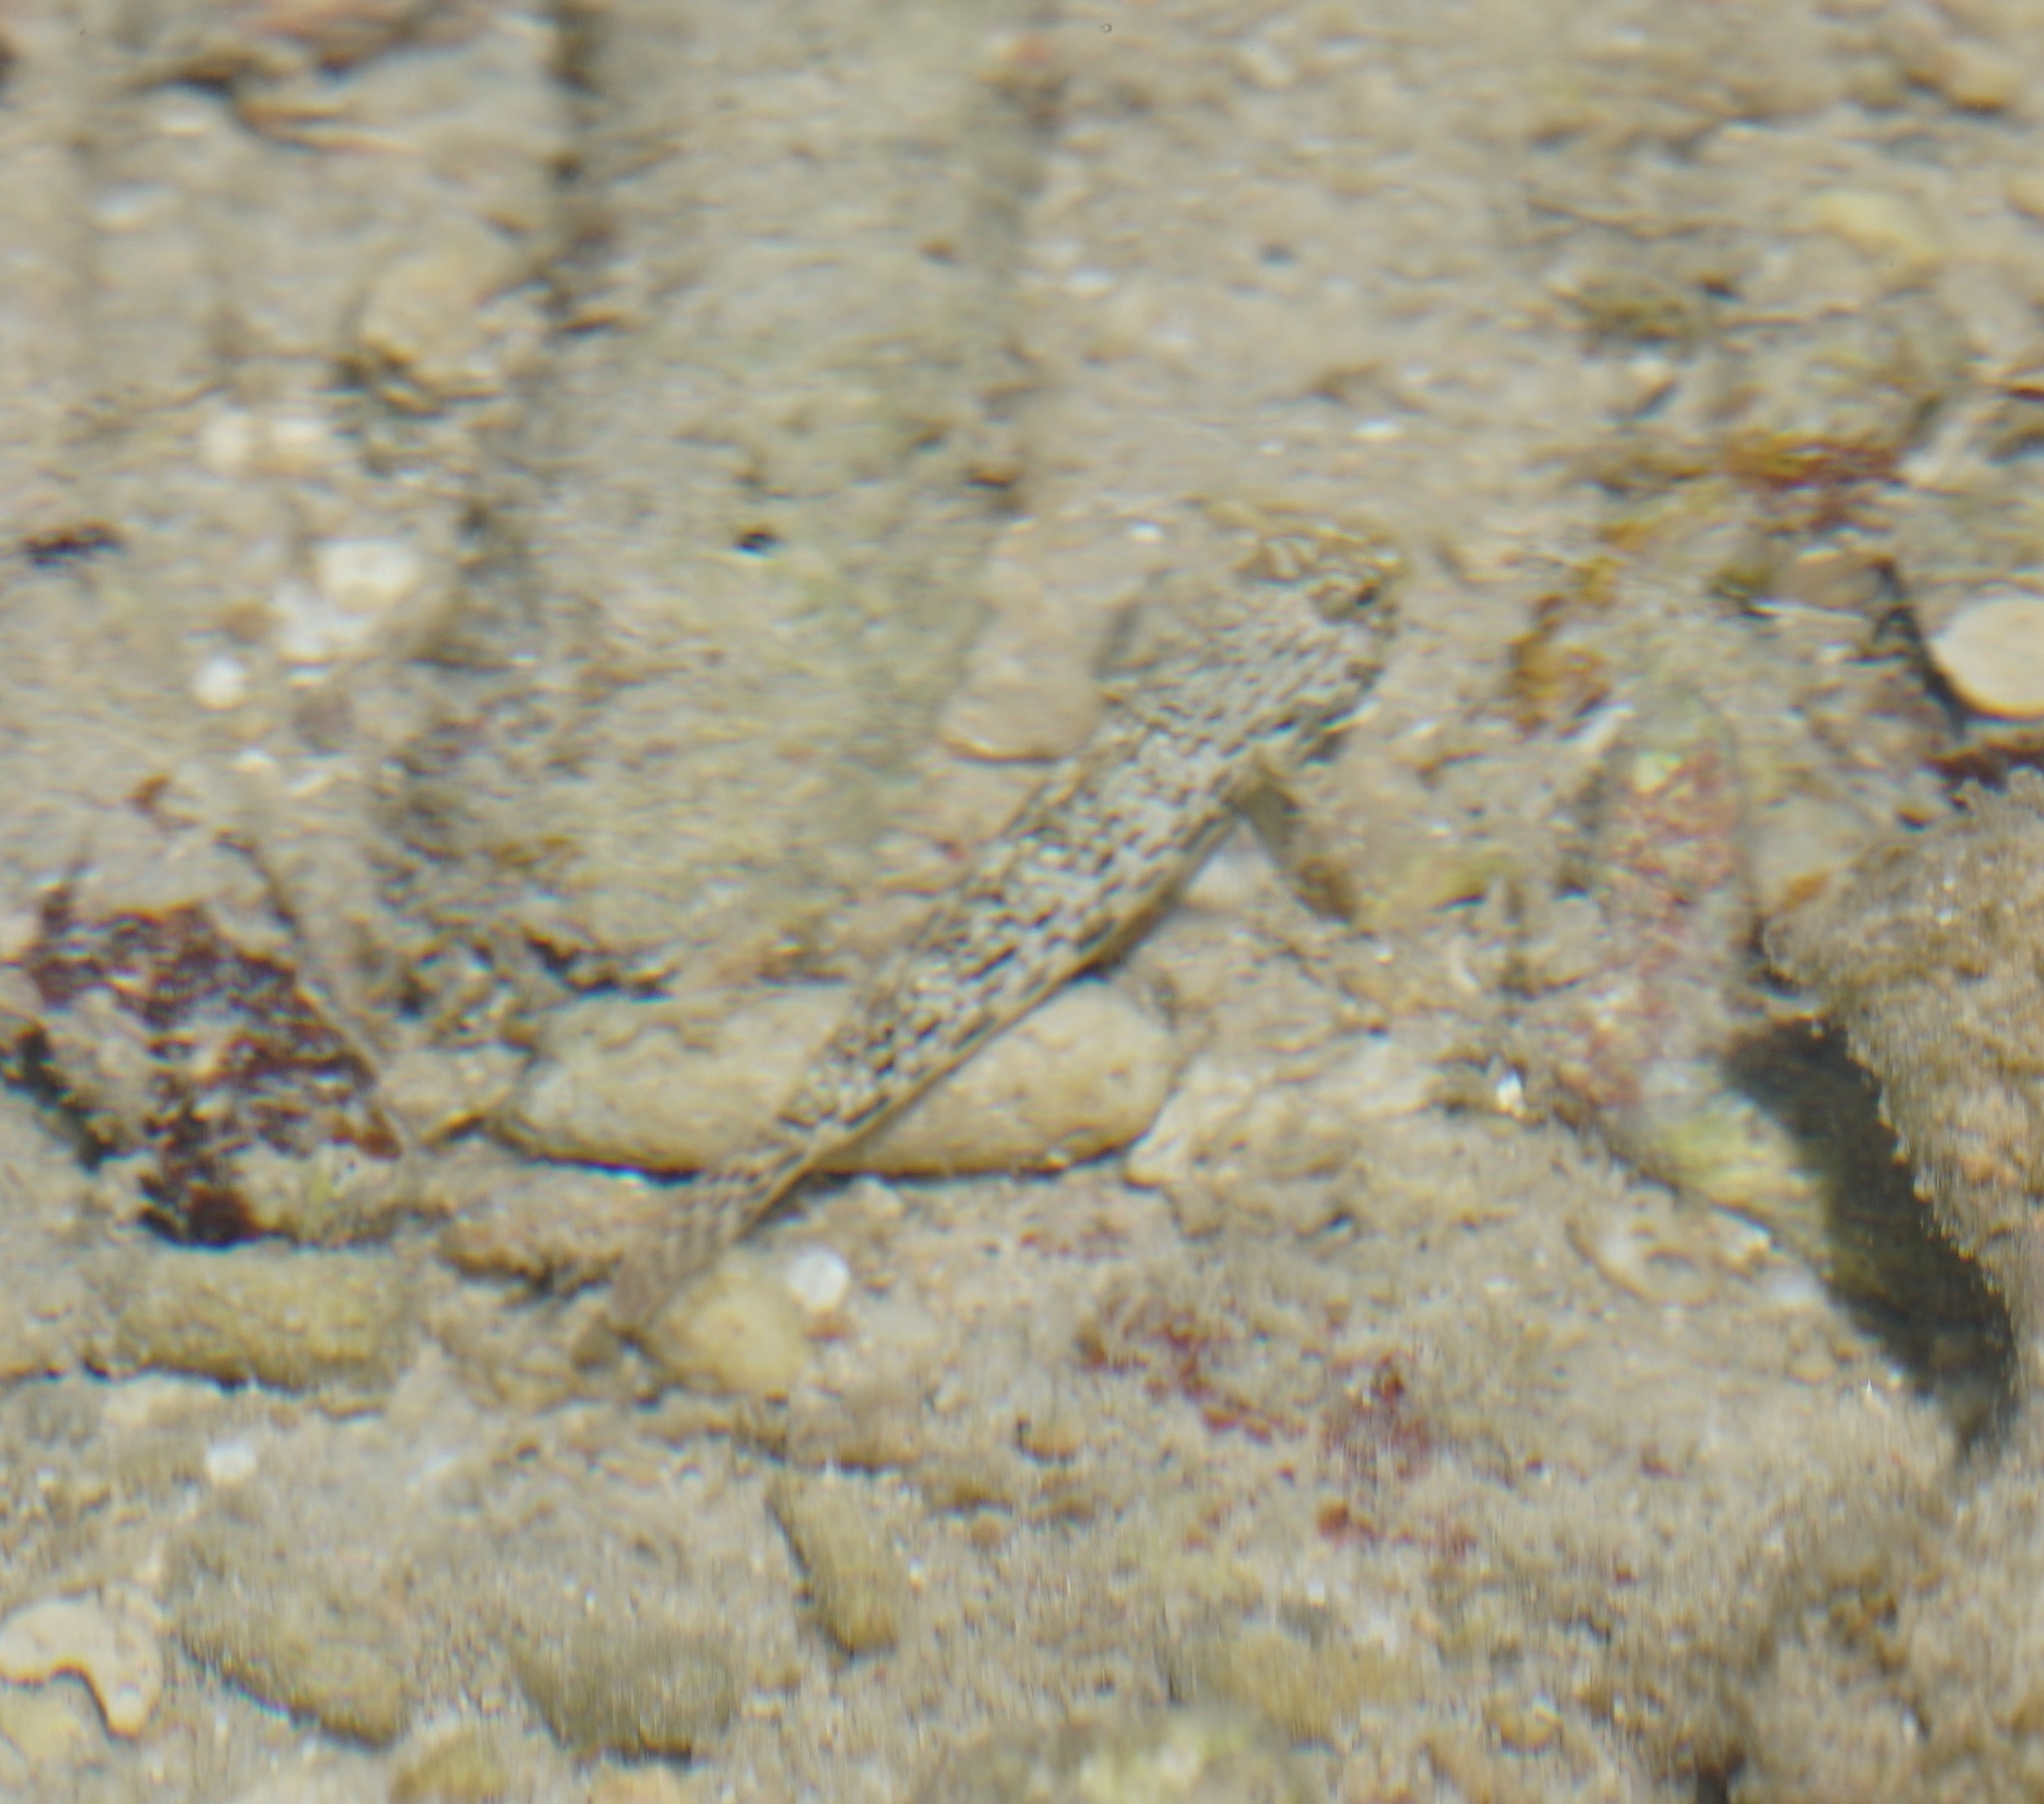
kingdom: Animalia
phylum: Chordata
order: Perciformes
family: Gobiidae
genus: Istigobius
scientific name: Istigobius ornatus
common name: Ornate goby
